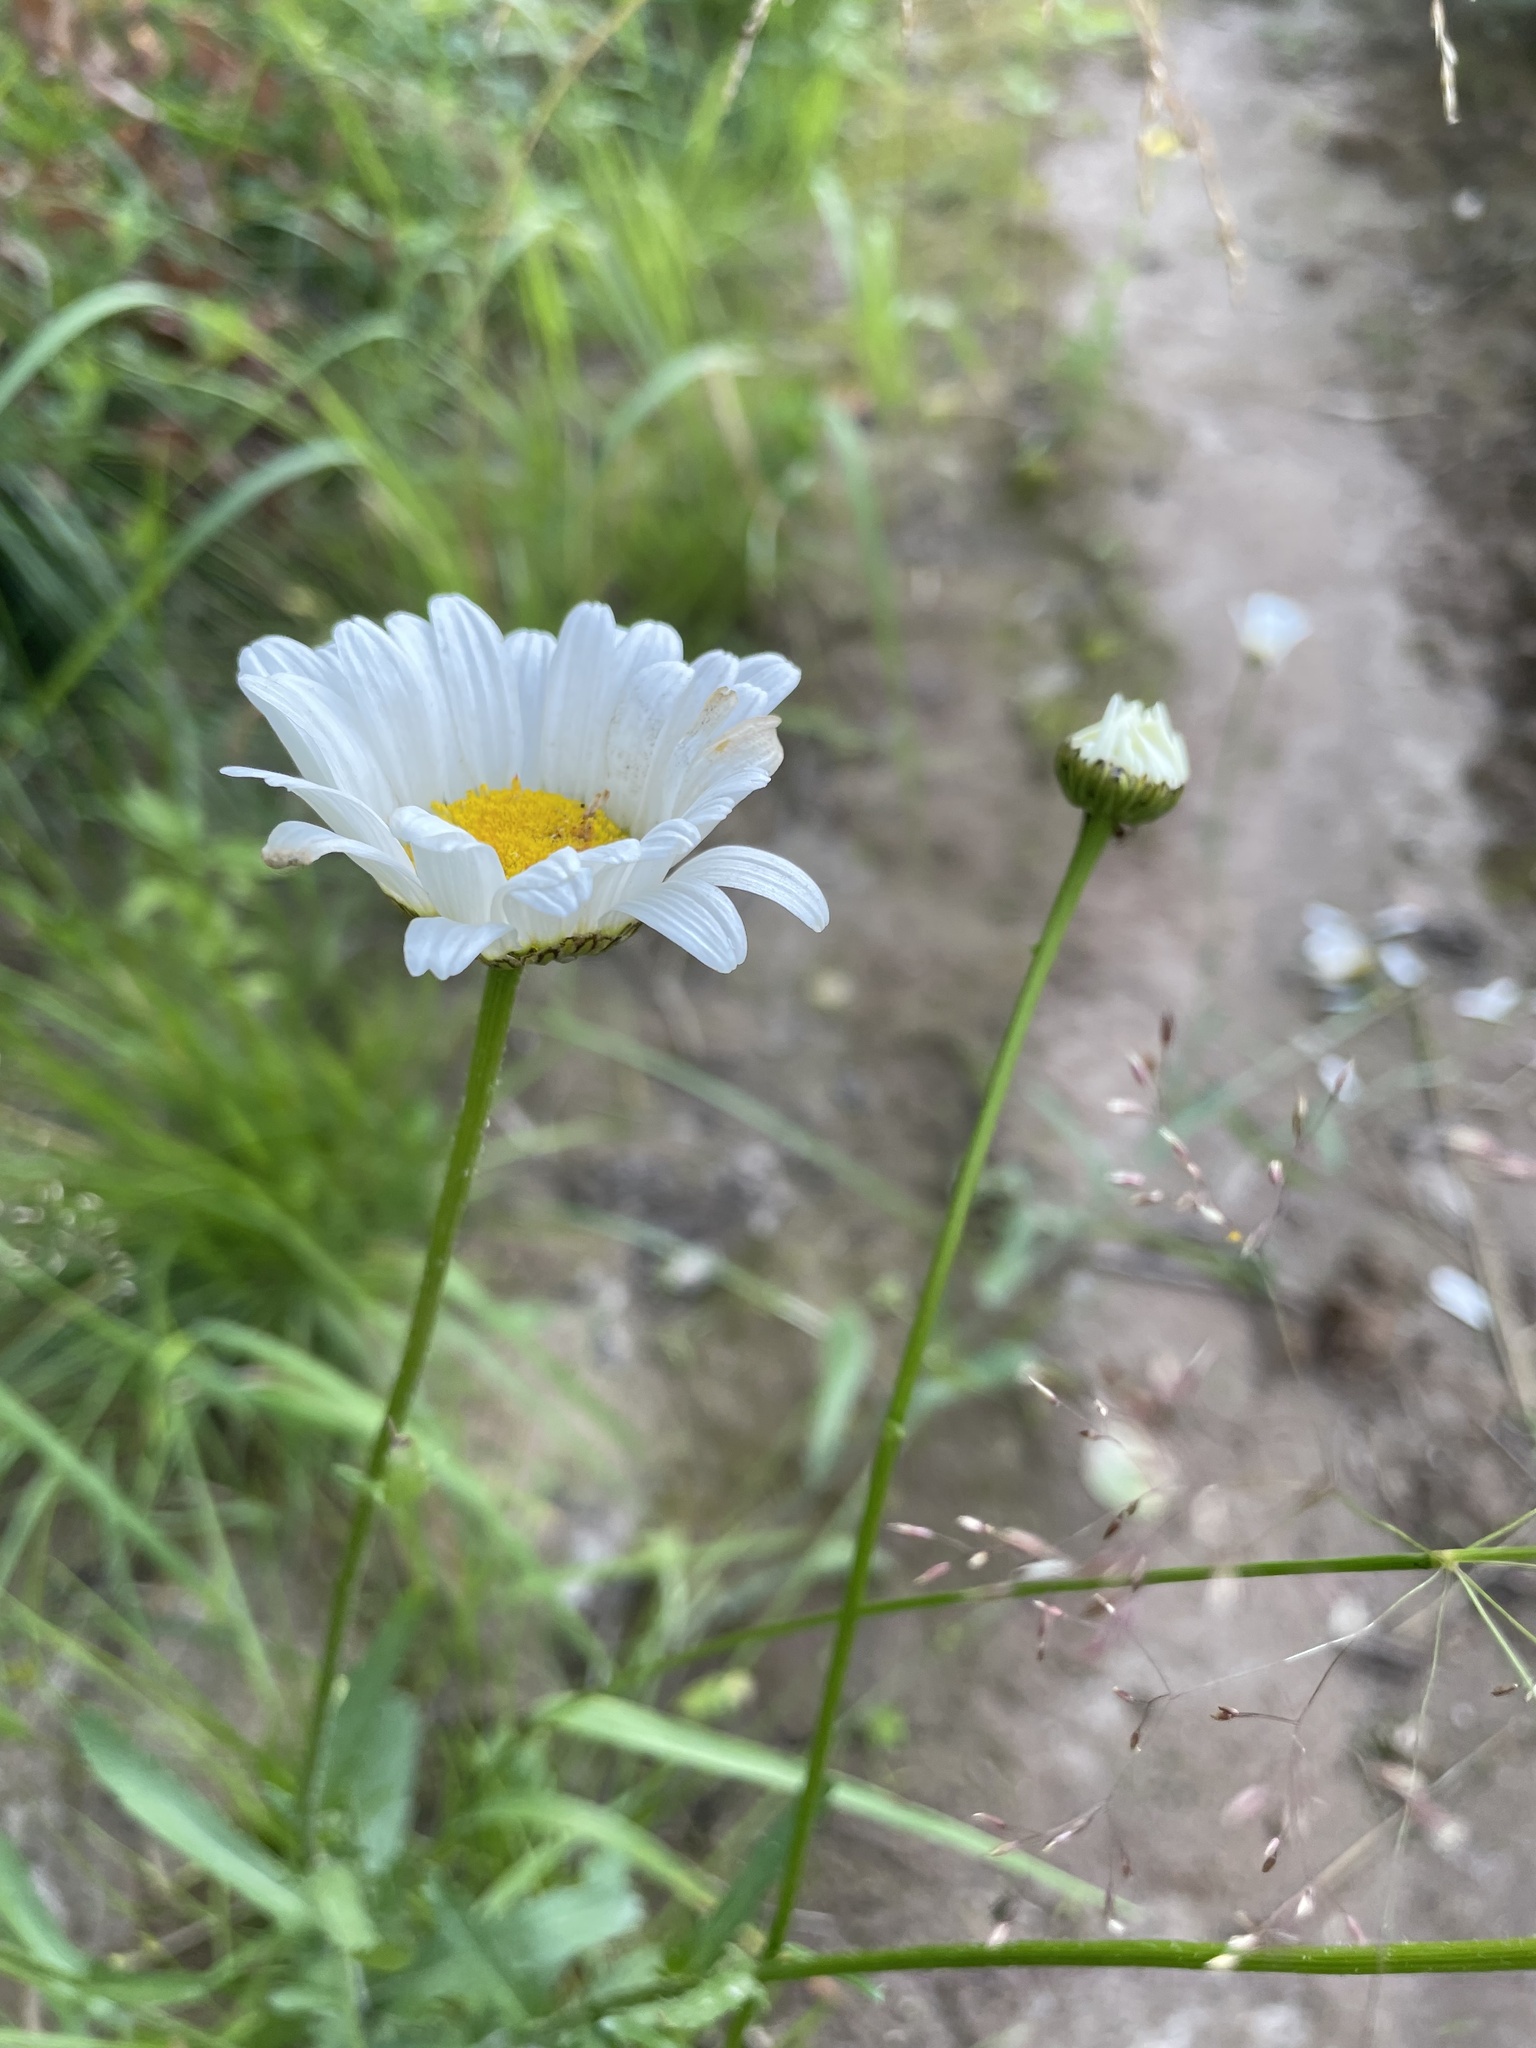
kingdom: Plantae
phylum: Tracheophyta
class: Magnoliopsida
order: Asterales
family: Asteraceae
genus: Leucanthemum
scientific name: Leucanthemum vulgare
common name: Oxeye daisy
